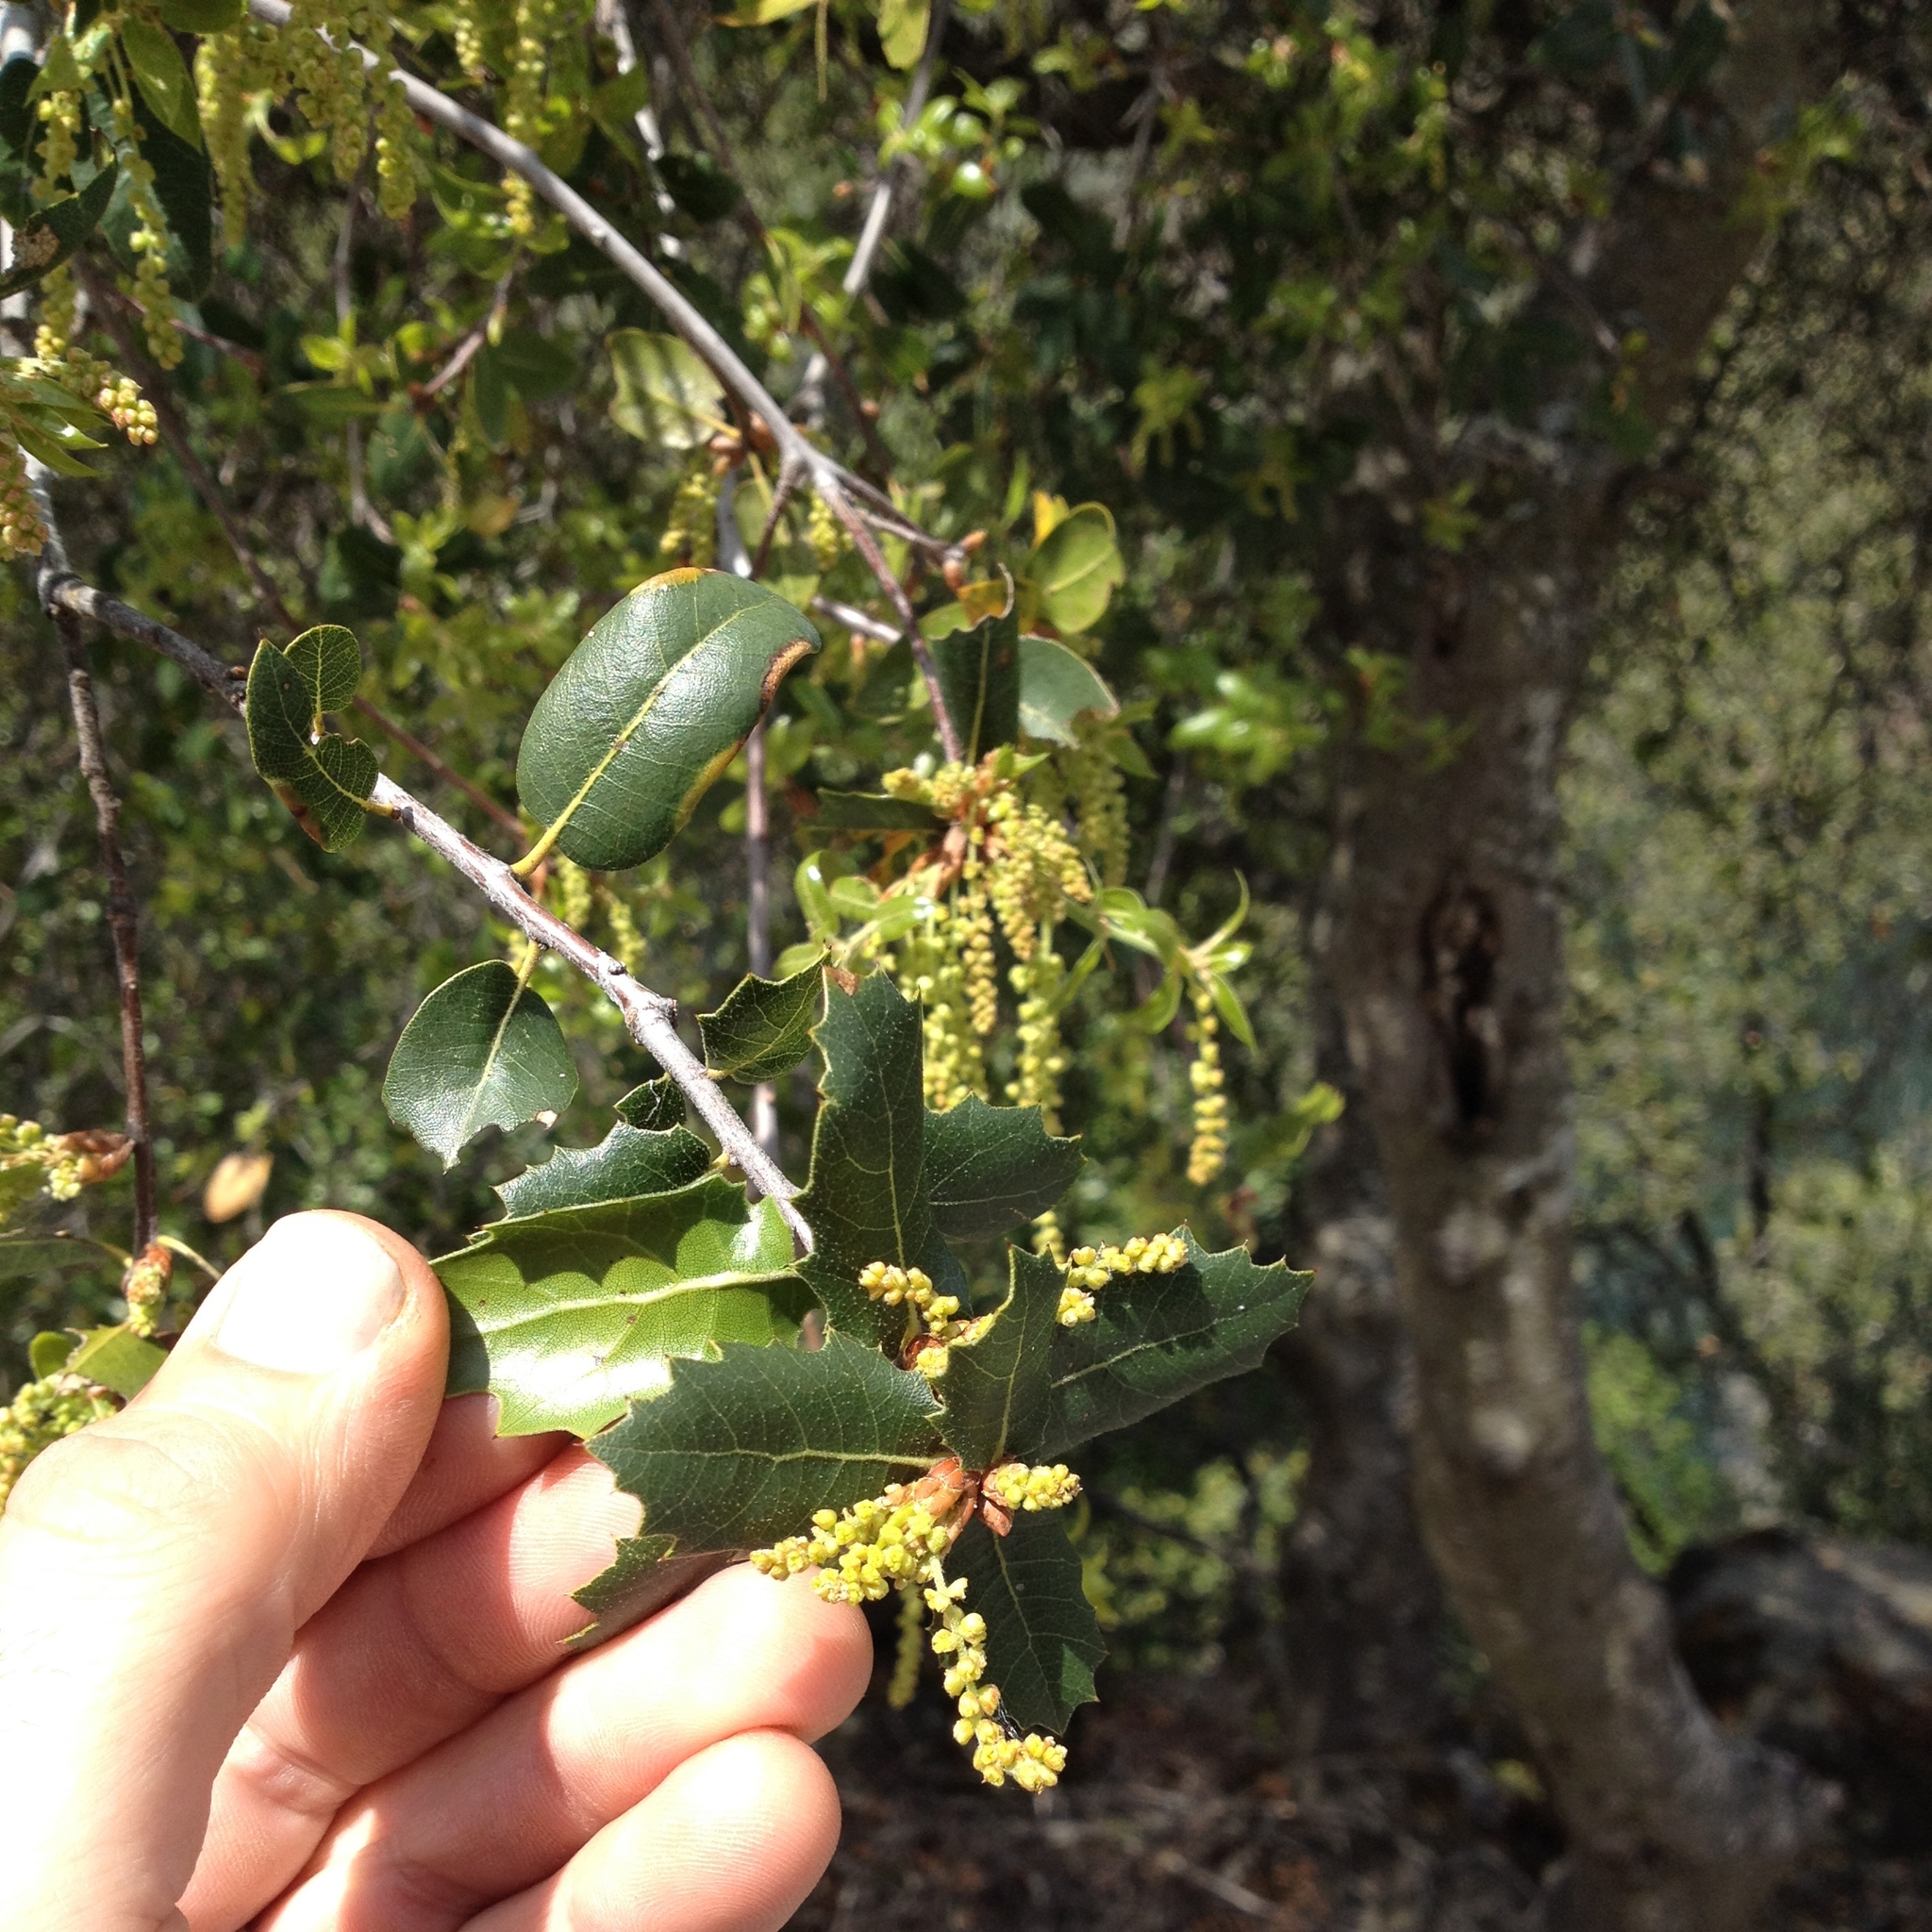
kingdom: Plantae
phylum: Tracheophyta
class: Magnoliopsida
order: Fagales
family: Fagaceae
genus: Quercus
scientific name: Quercus wislizeni
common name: Interior live oak
